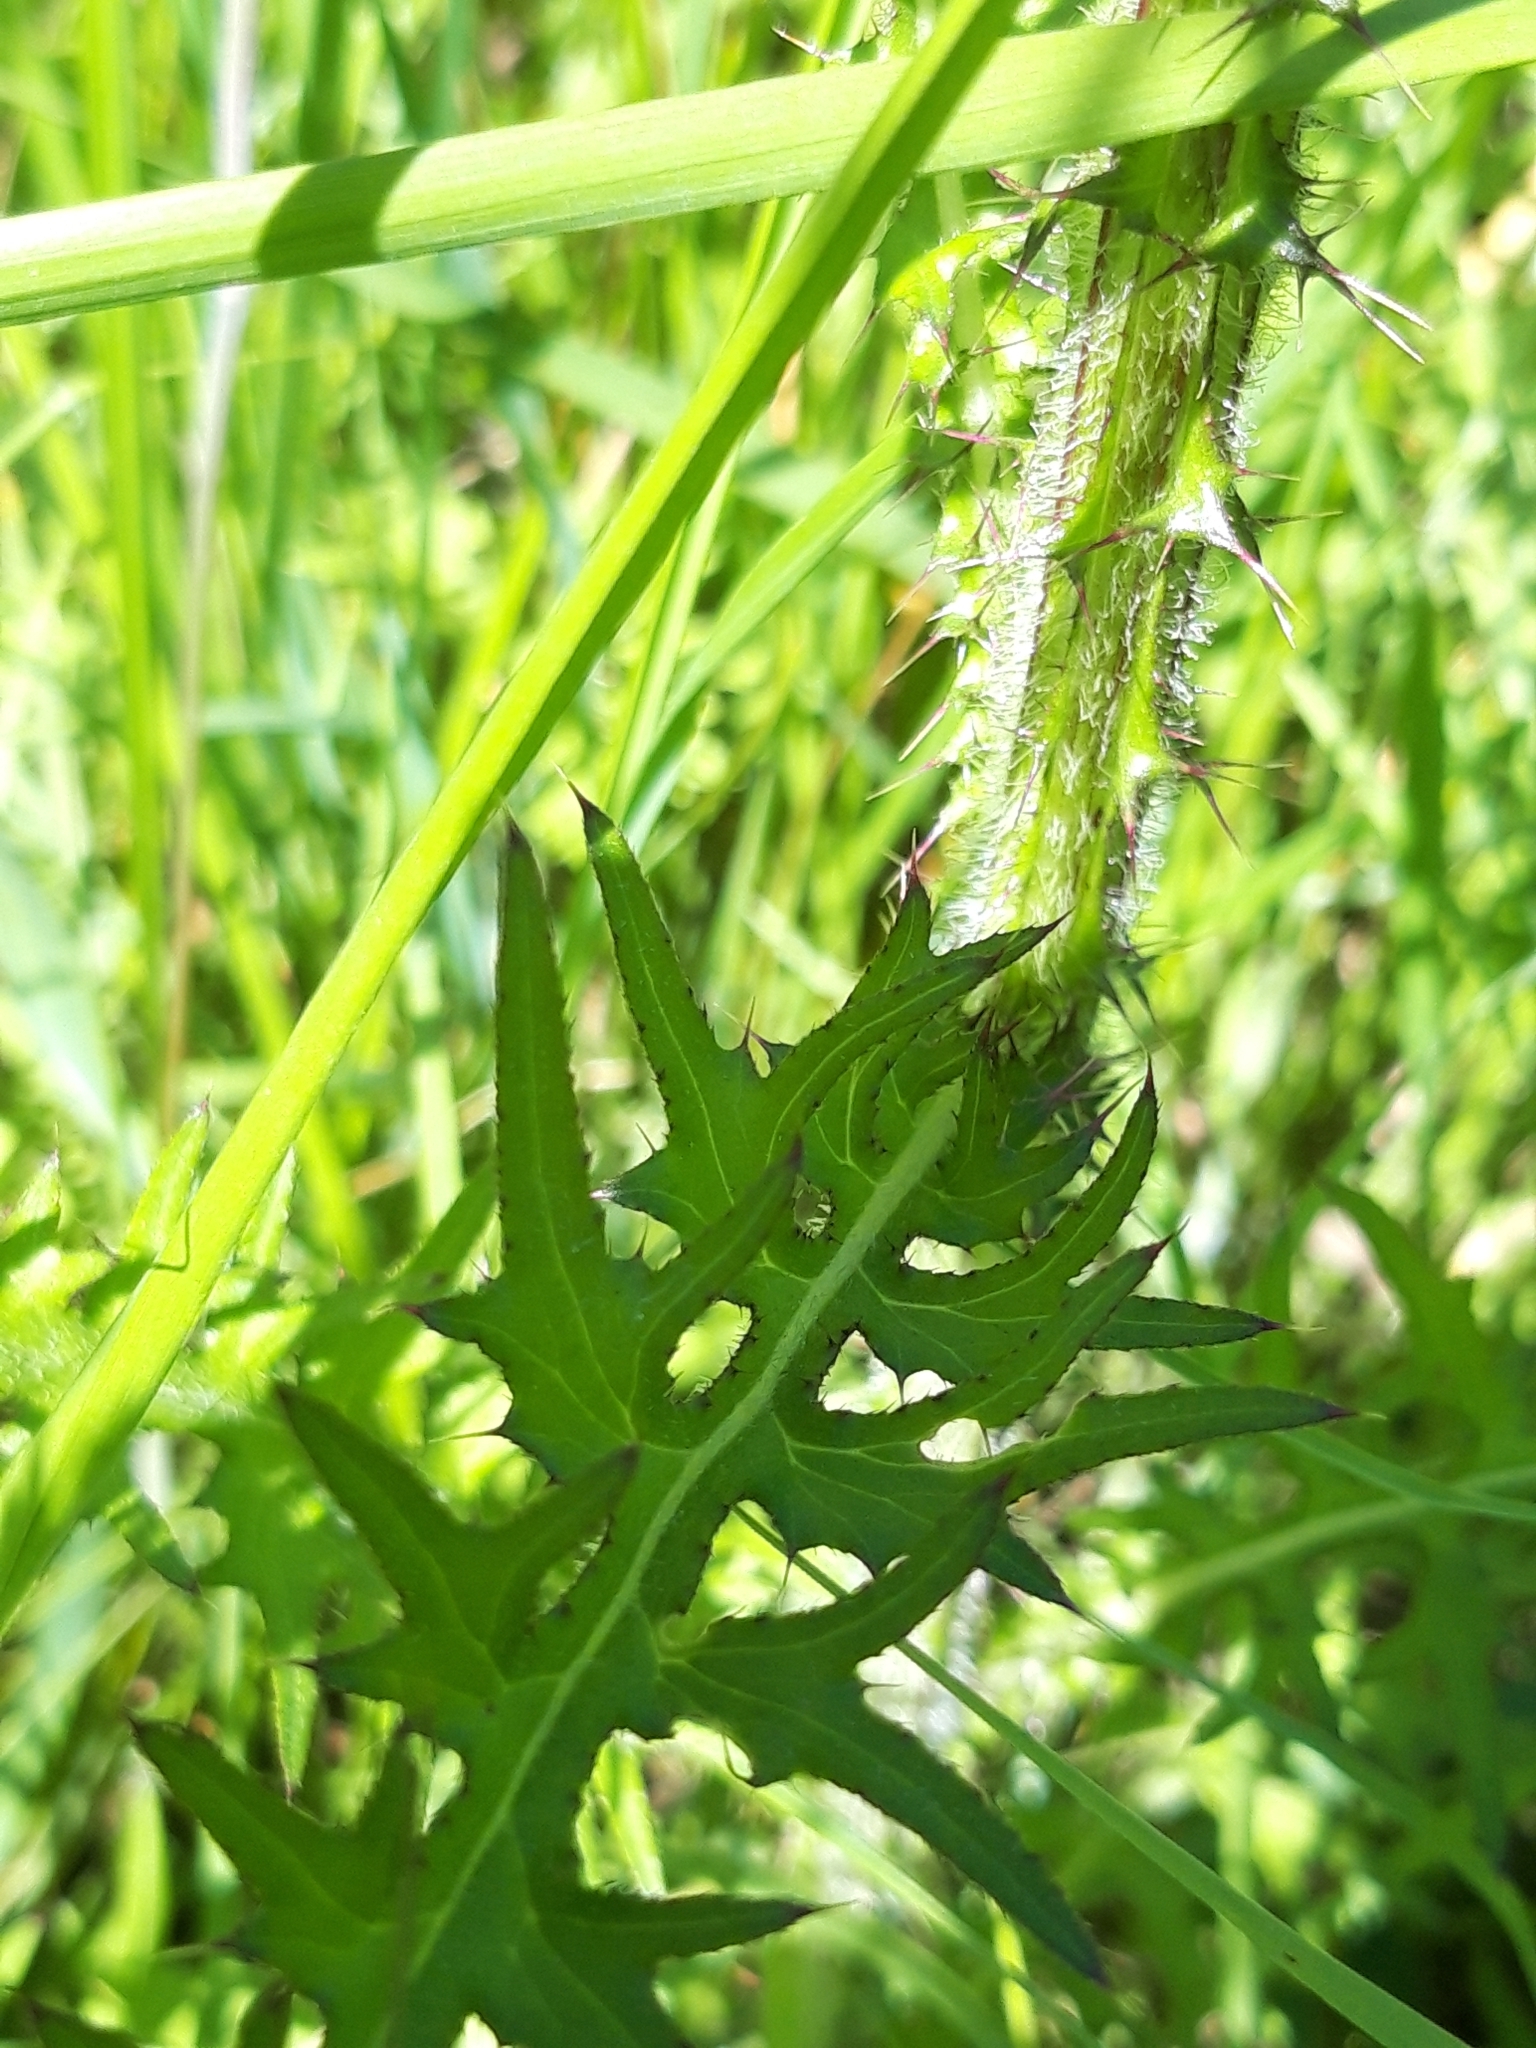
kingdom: Plantae
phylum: Tracheophyta
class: Magnoliopsida
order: Asterales
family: Asteraceae
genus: Cirsium
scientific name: Cirsium palustre
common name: Marsh thistle
